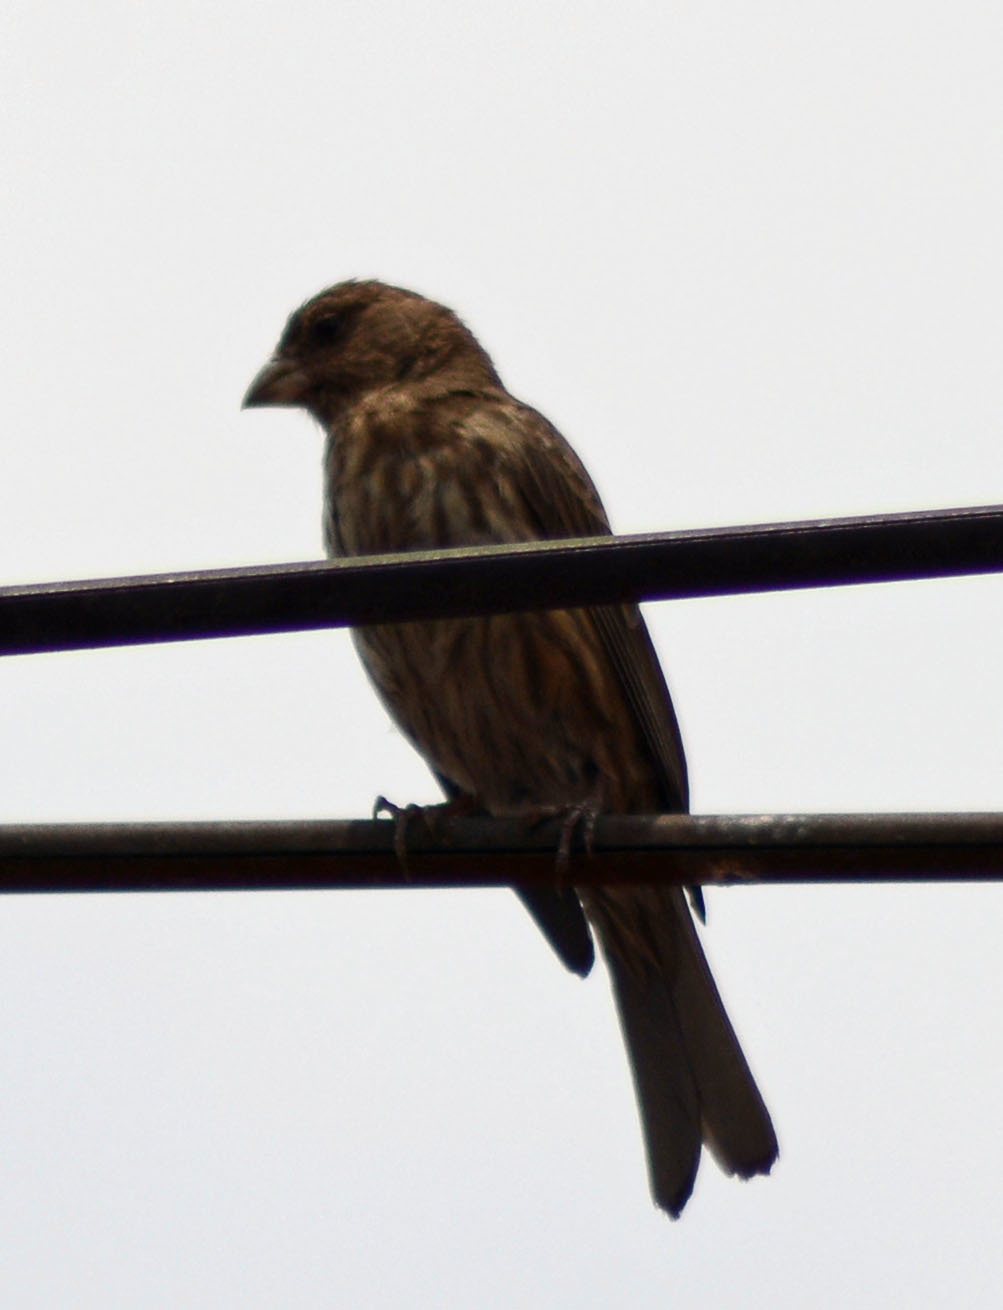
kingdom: Animalia
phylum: Chordata
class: Aves
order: Passeriformes
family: Fringillidae
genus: Haemorhous
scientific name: Haemorhous mexicanus
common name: House finch
